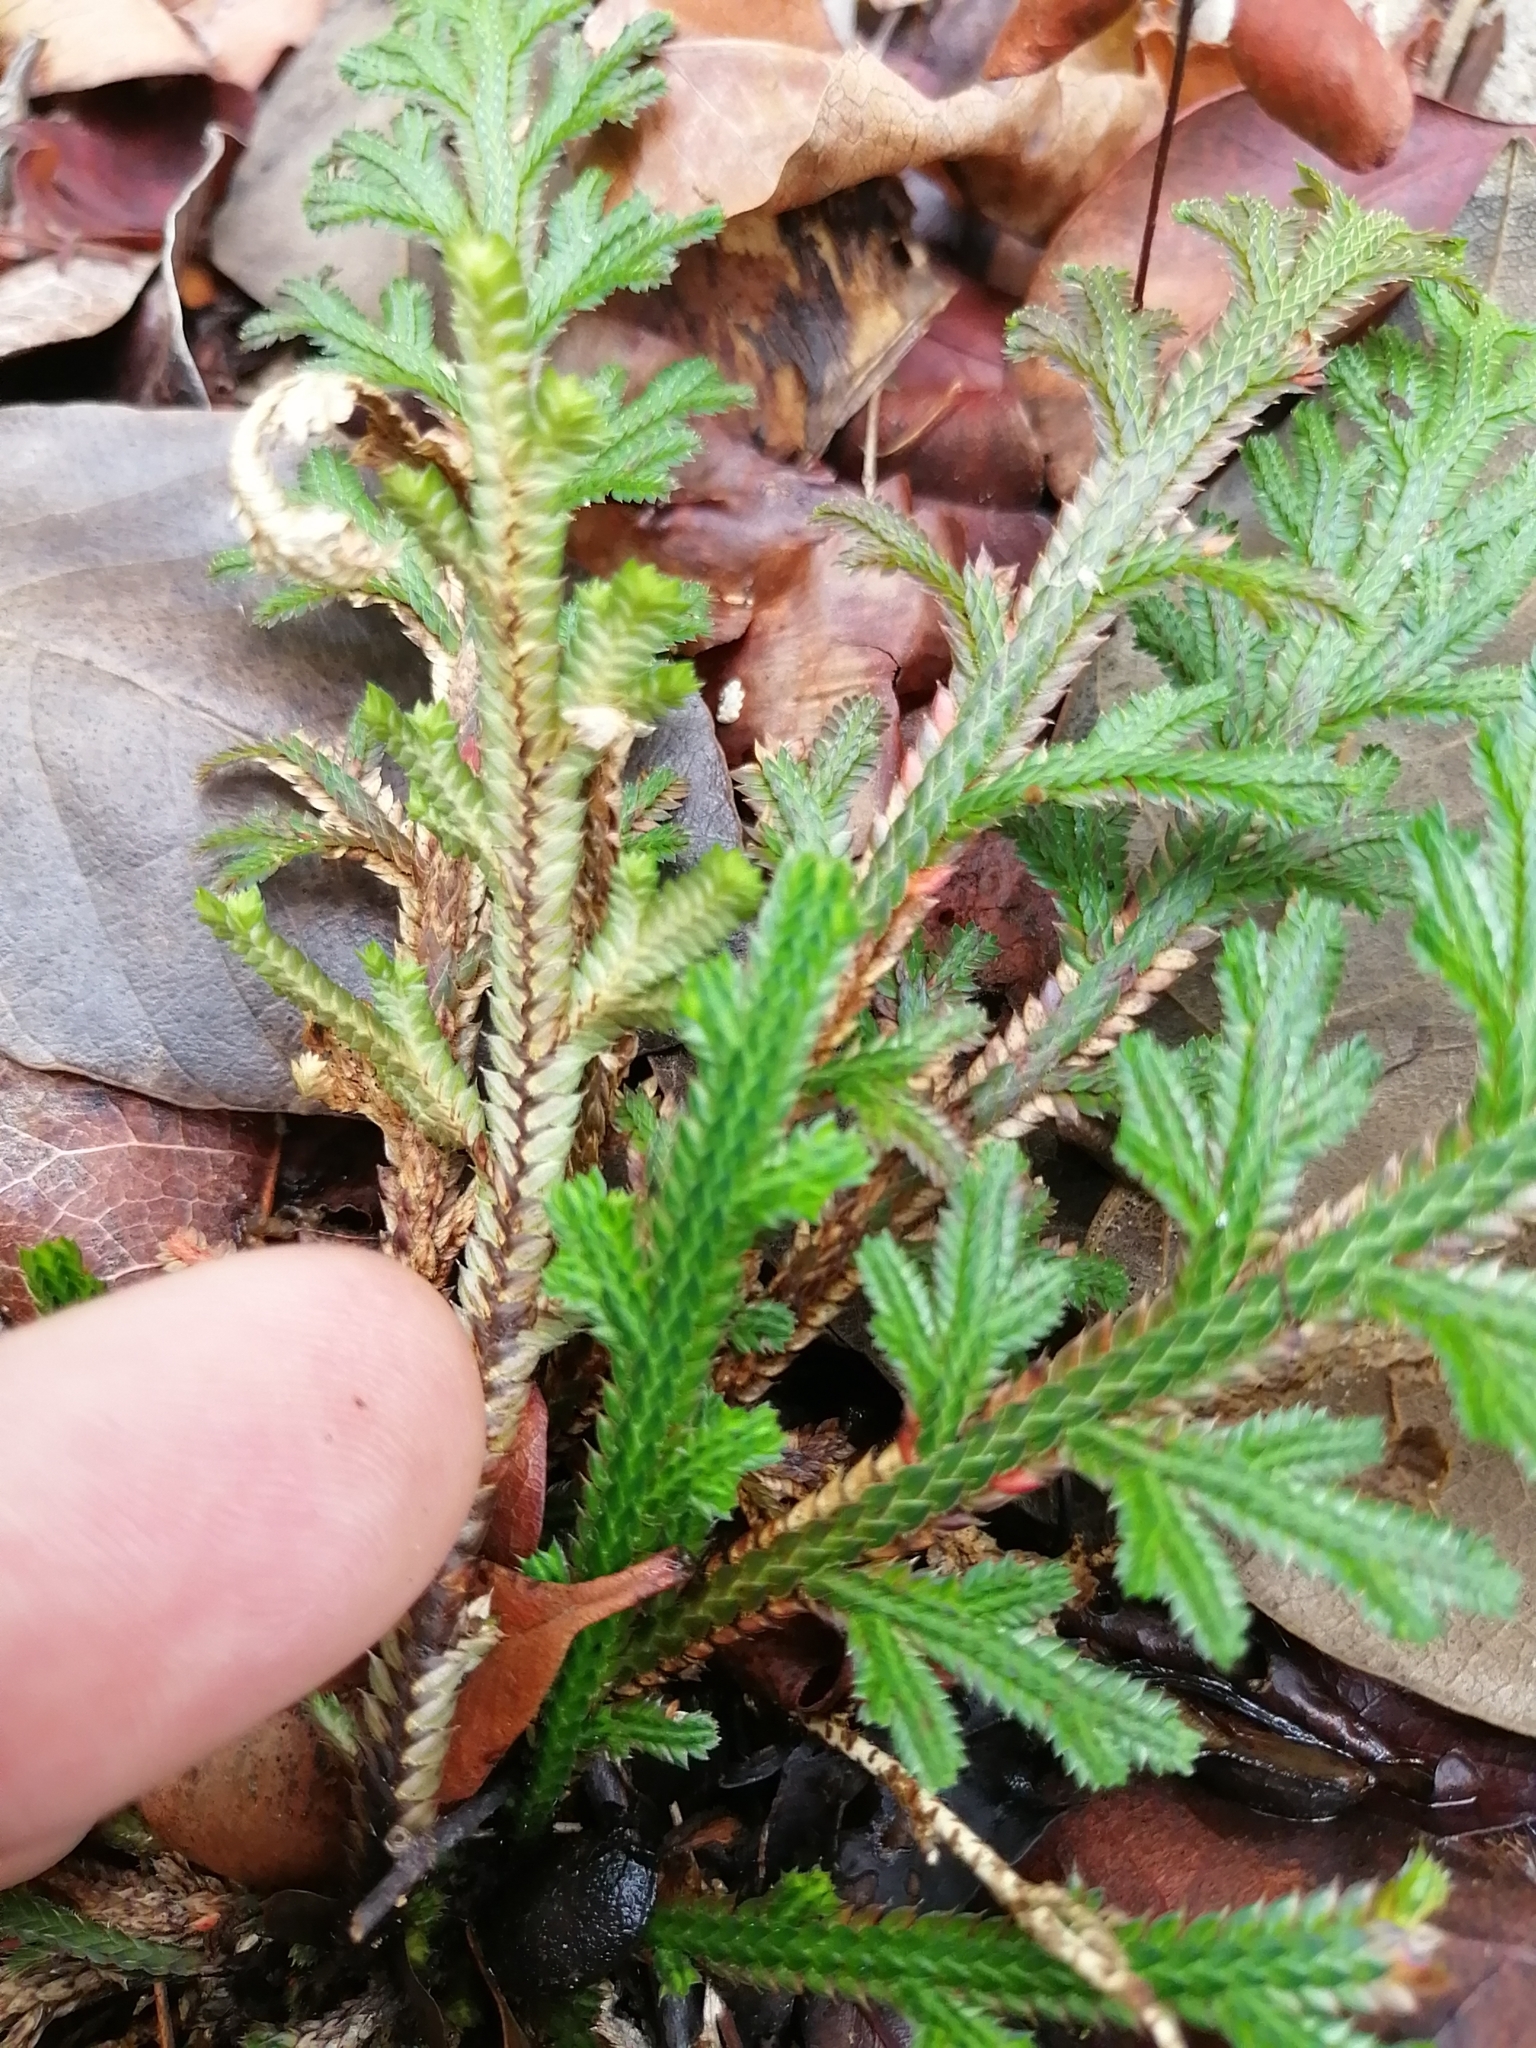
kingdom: Plantae
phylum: Tracheophyta
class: Lycopodiopsida
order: Selaginellales
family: Selaginellaceae
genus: Selaginella
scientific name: Selaginella convoluta
